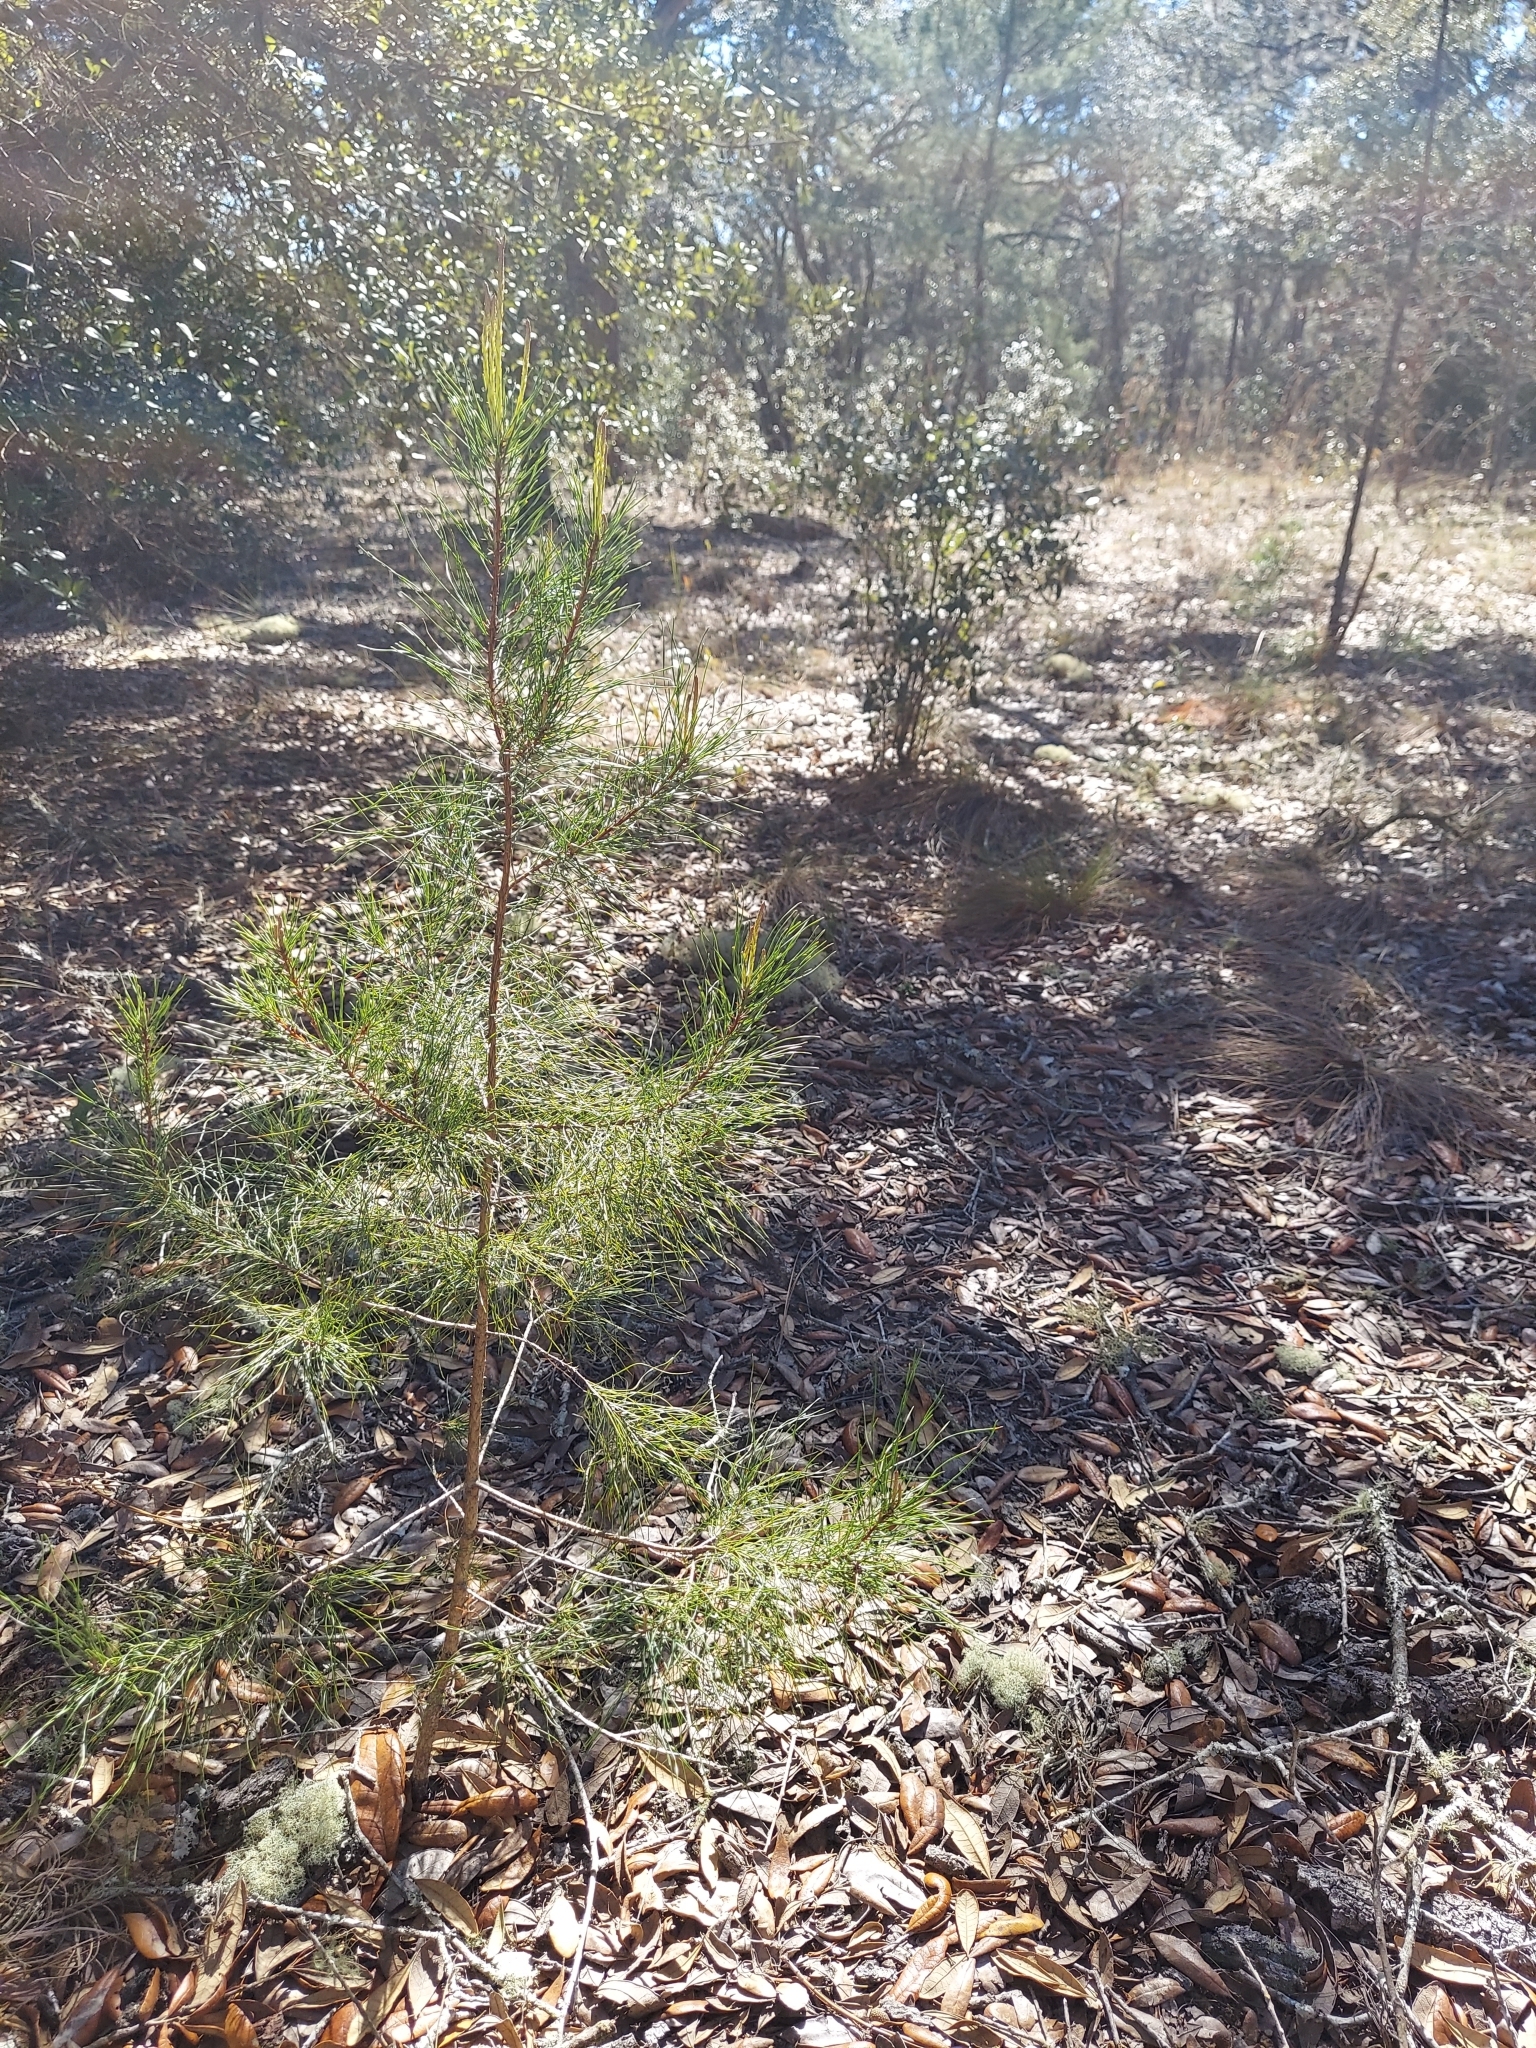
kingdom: Plantae
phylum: Tracheophyta
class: Pinopsida
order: Pinales
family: Pinaceae
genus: Pinus
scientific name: Pinus clausa
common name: Sand pine
